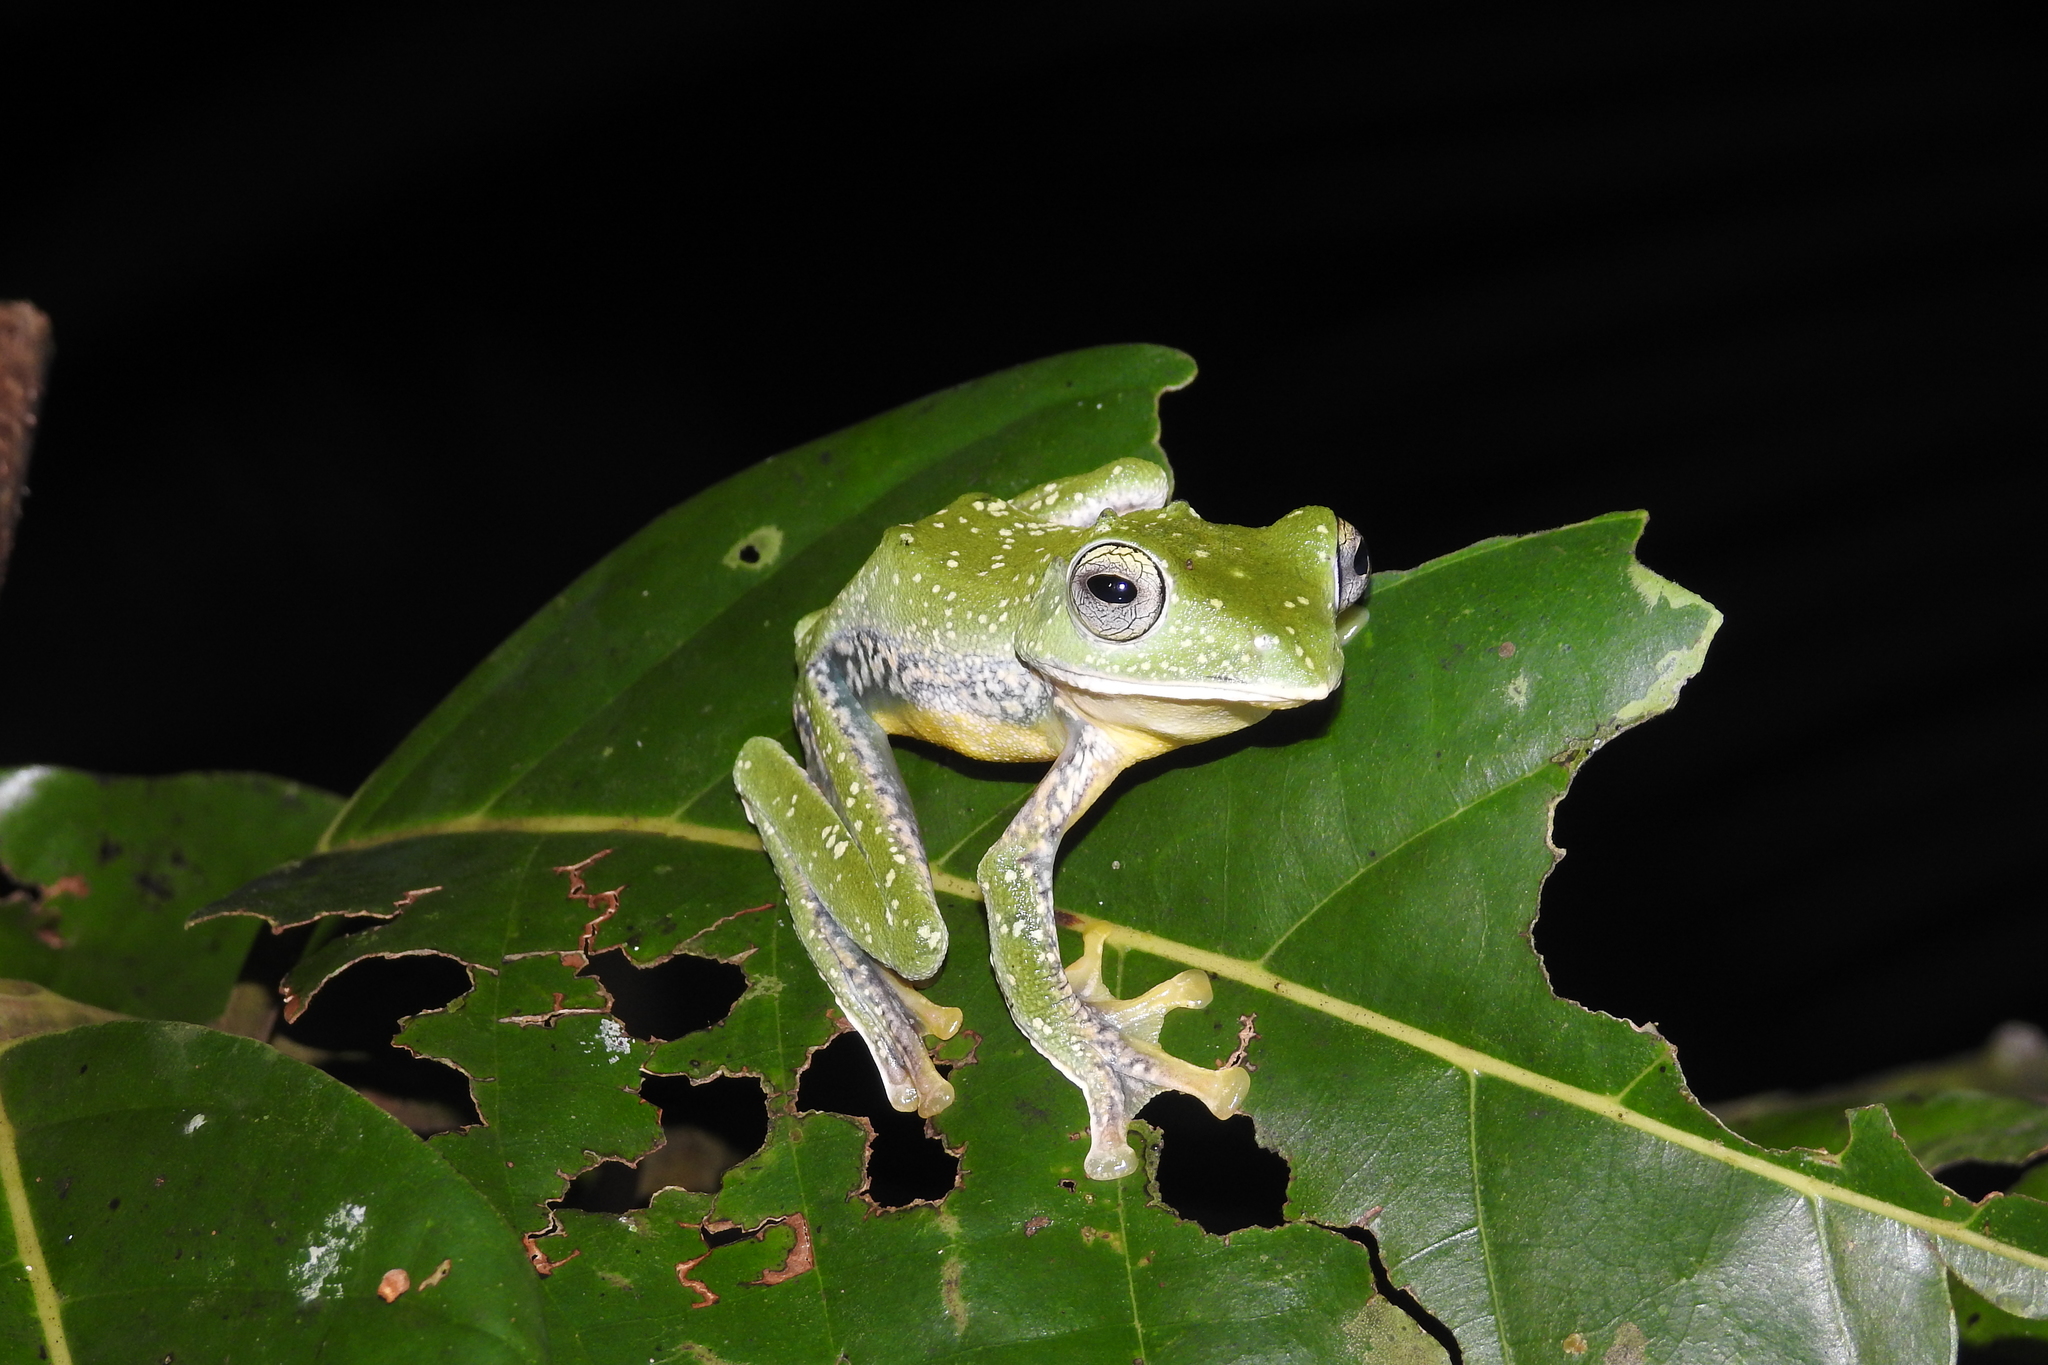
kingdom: Animalia
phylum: Chordata
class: Amphibia
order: Anura
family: Rhacophoridae
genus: Rhacophorus
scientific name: Rhacophorus georgii
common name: Tuwa flying frog
